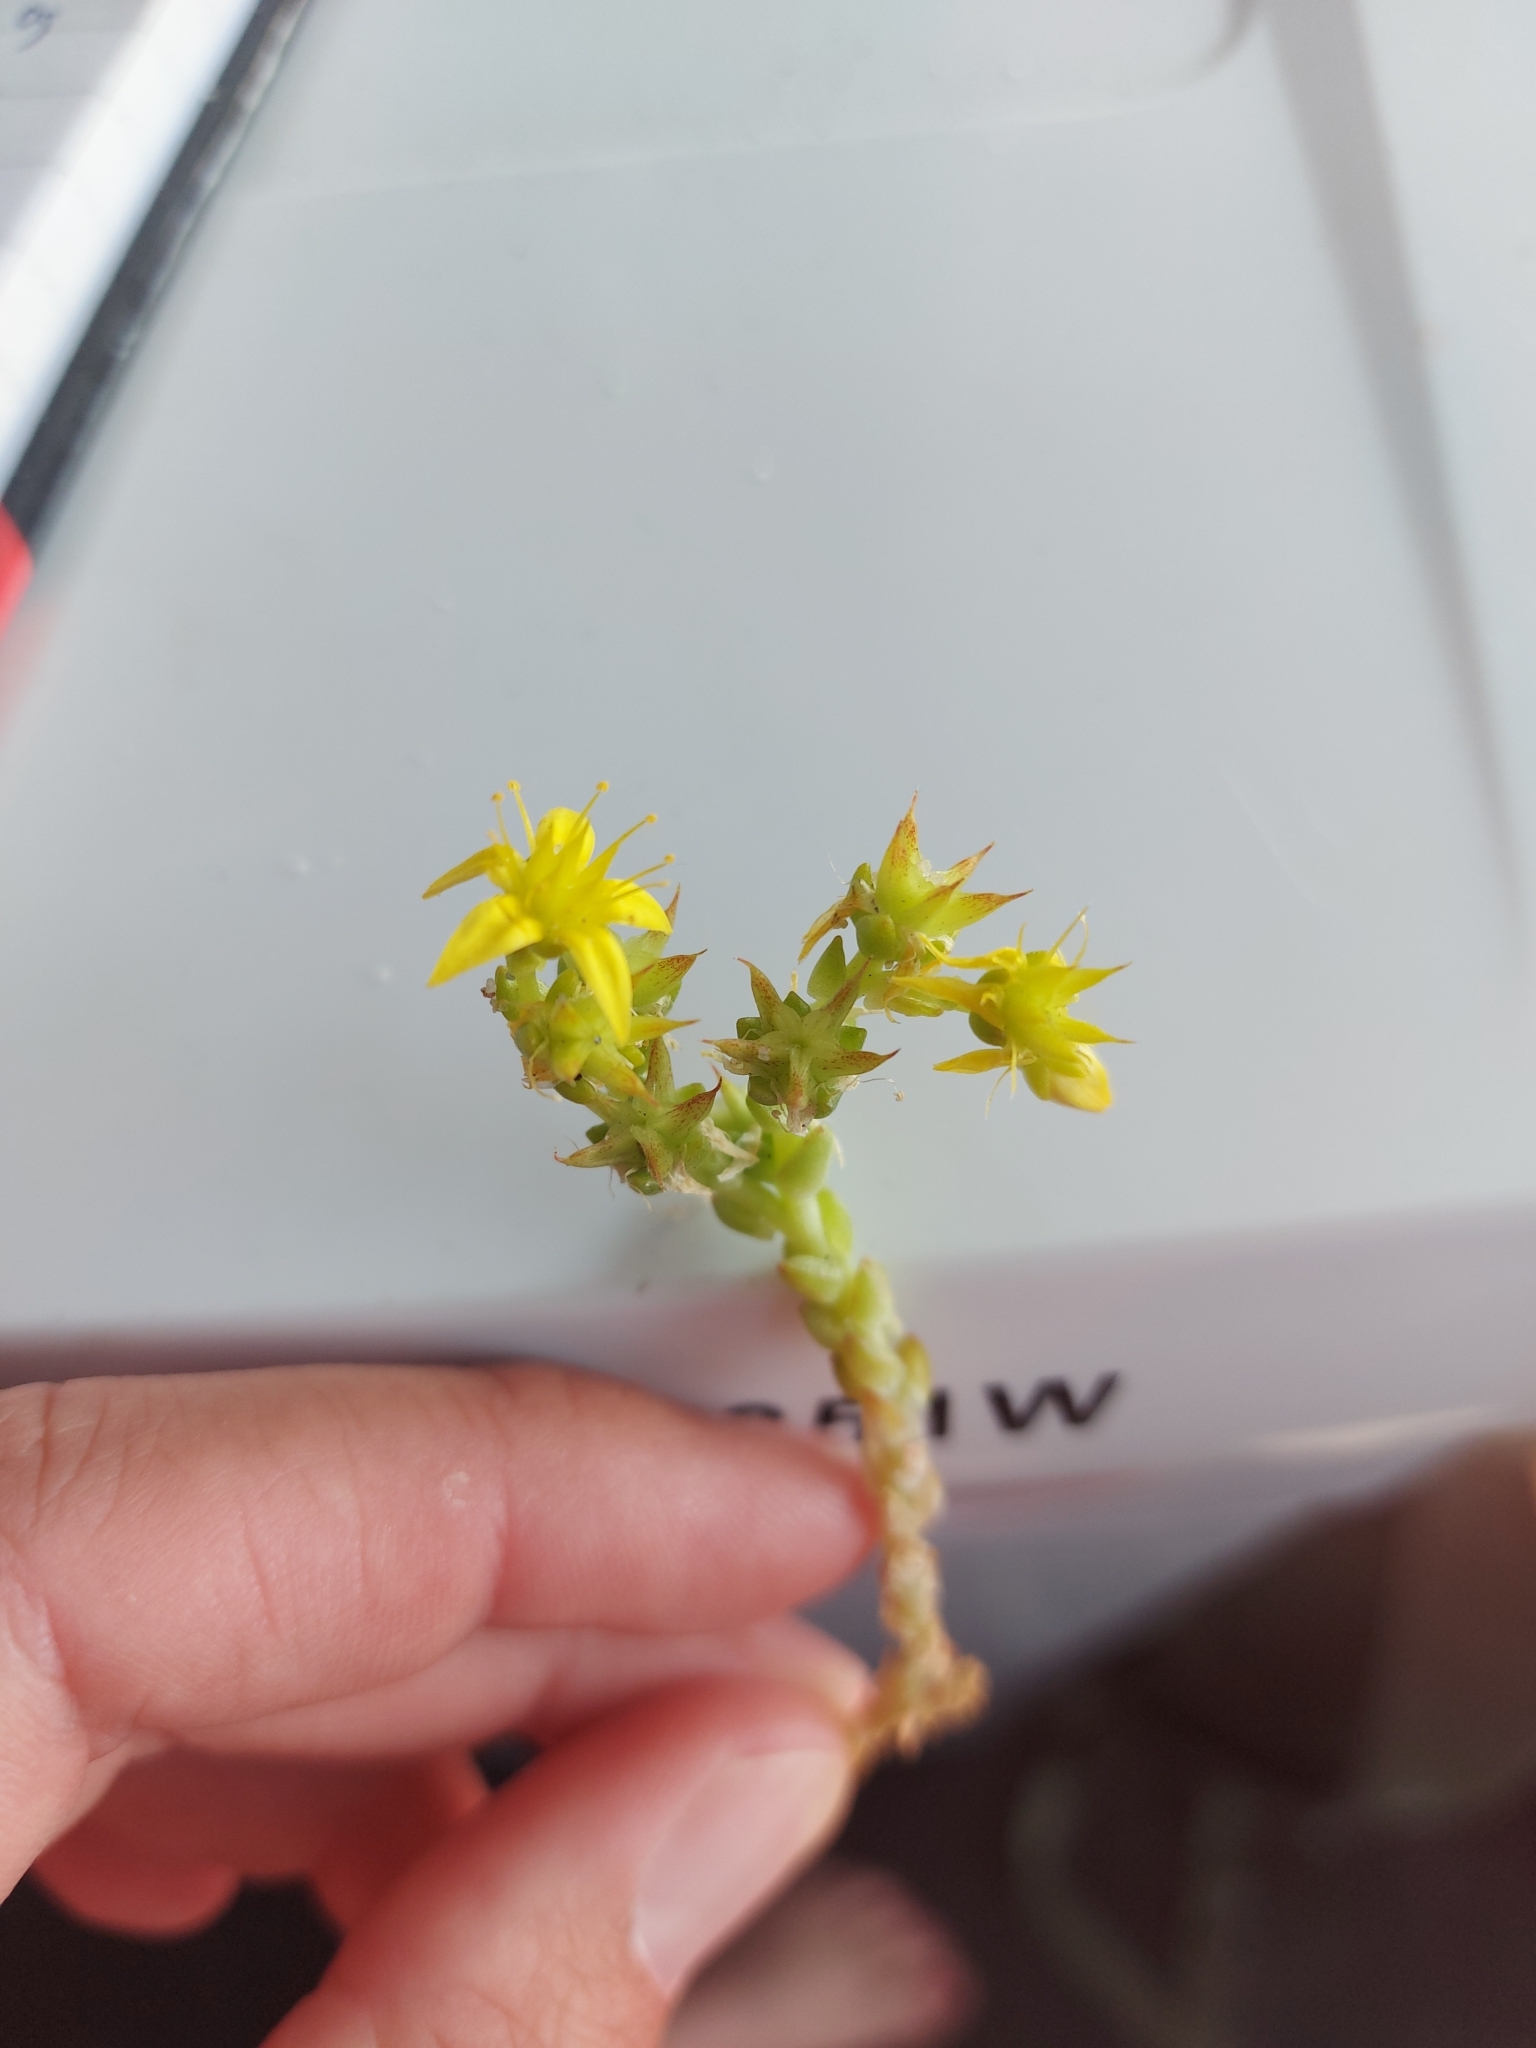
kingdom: Plantae
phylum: Tracheophyta
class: Magnoliopsida
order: Saxifragales
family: Crassulaceae
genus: Sedum
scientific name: Sedum acre
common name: Biting stonecrop
